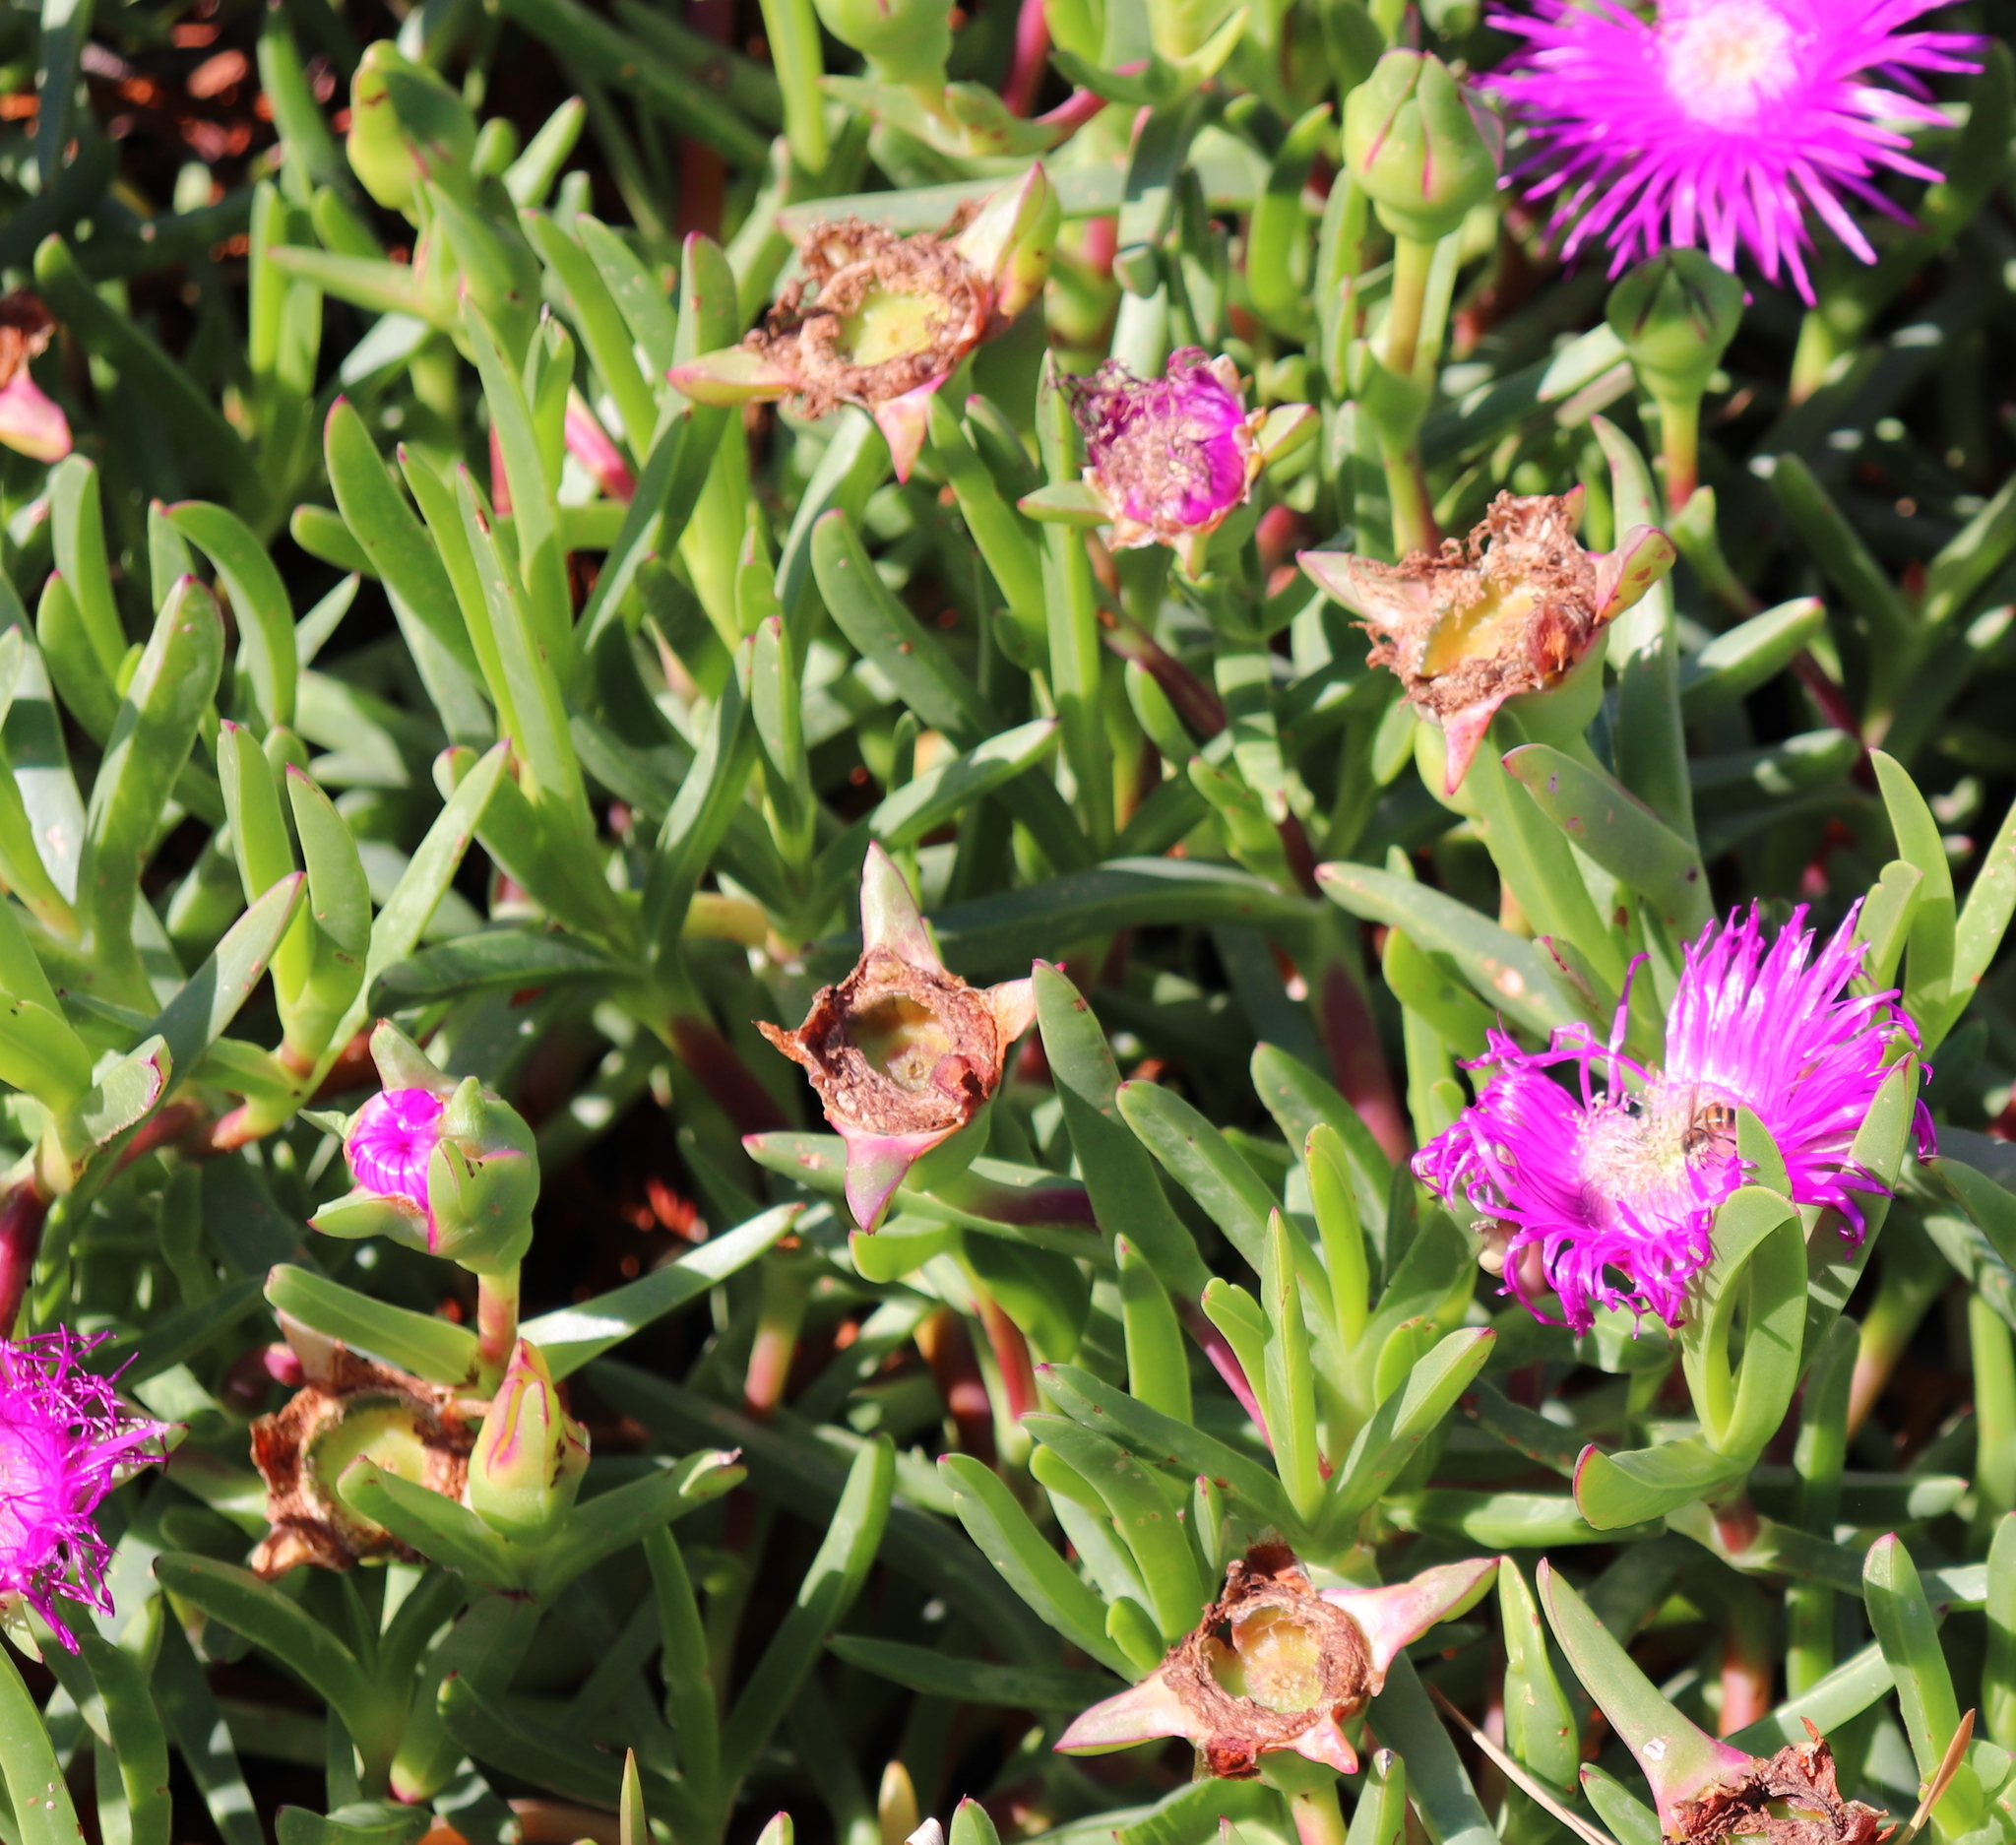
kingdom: Plantae
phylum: Tracheophyta
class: Magnoliopsida
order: Caryophyllales
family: Aizoaceae
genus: Carpobrotus
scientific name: Carpobrotus deliciosus
